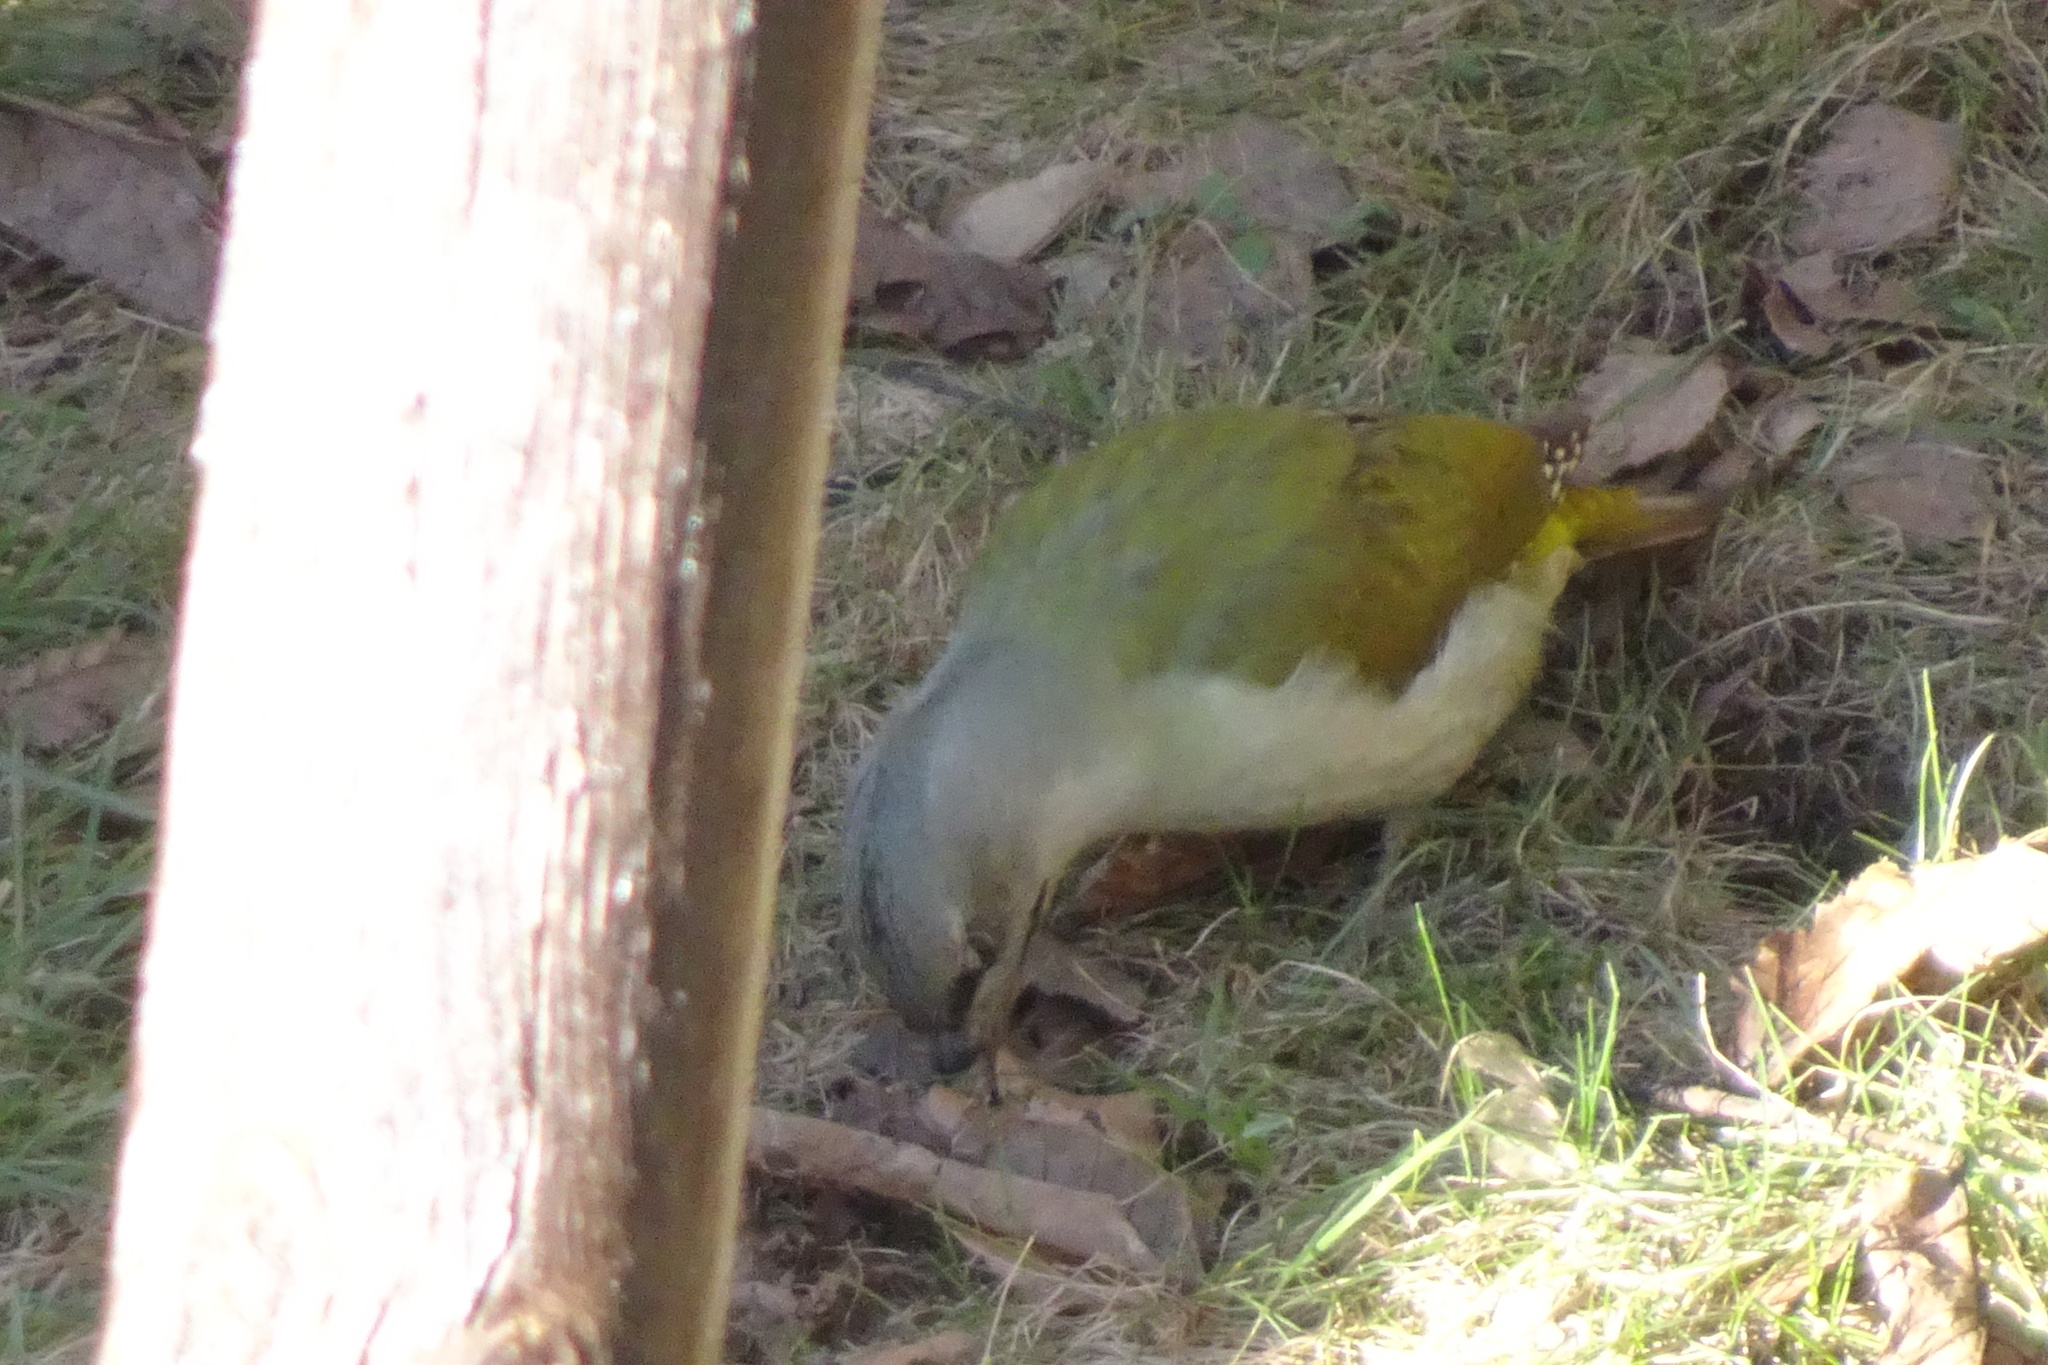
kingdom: Animalia
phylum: Chordata
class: Aves
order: Piciformes
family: Picidae
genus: Picus
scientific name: Picus canus
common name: Grey-headed woodpecker
